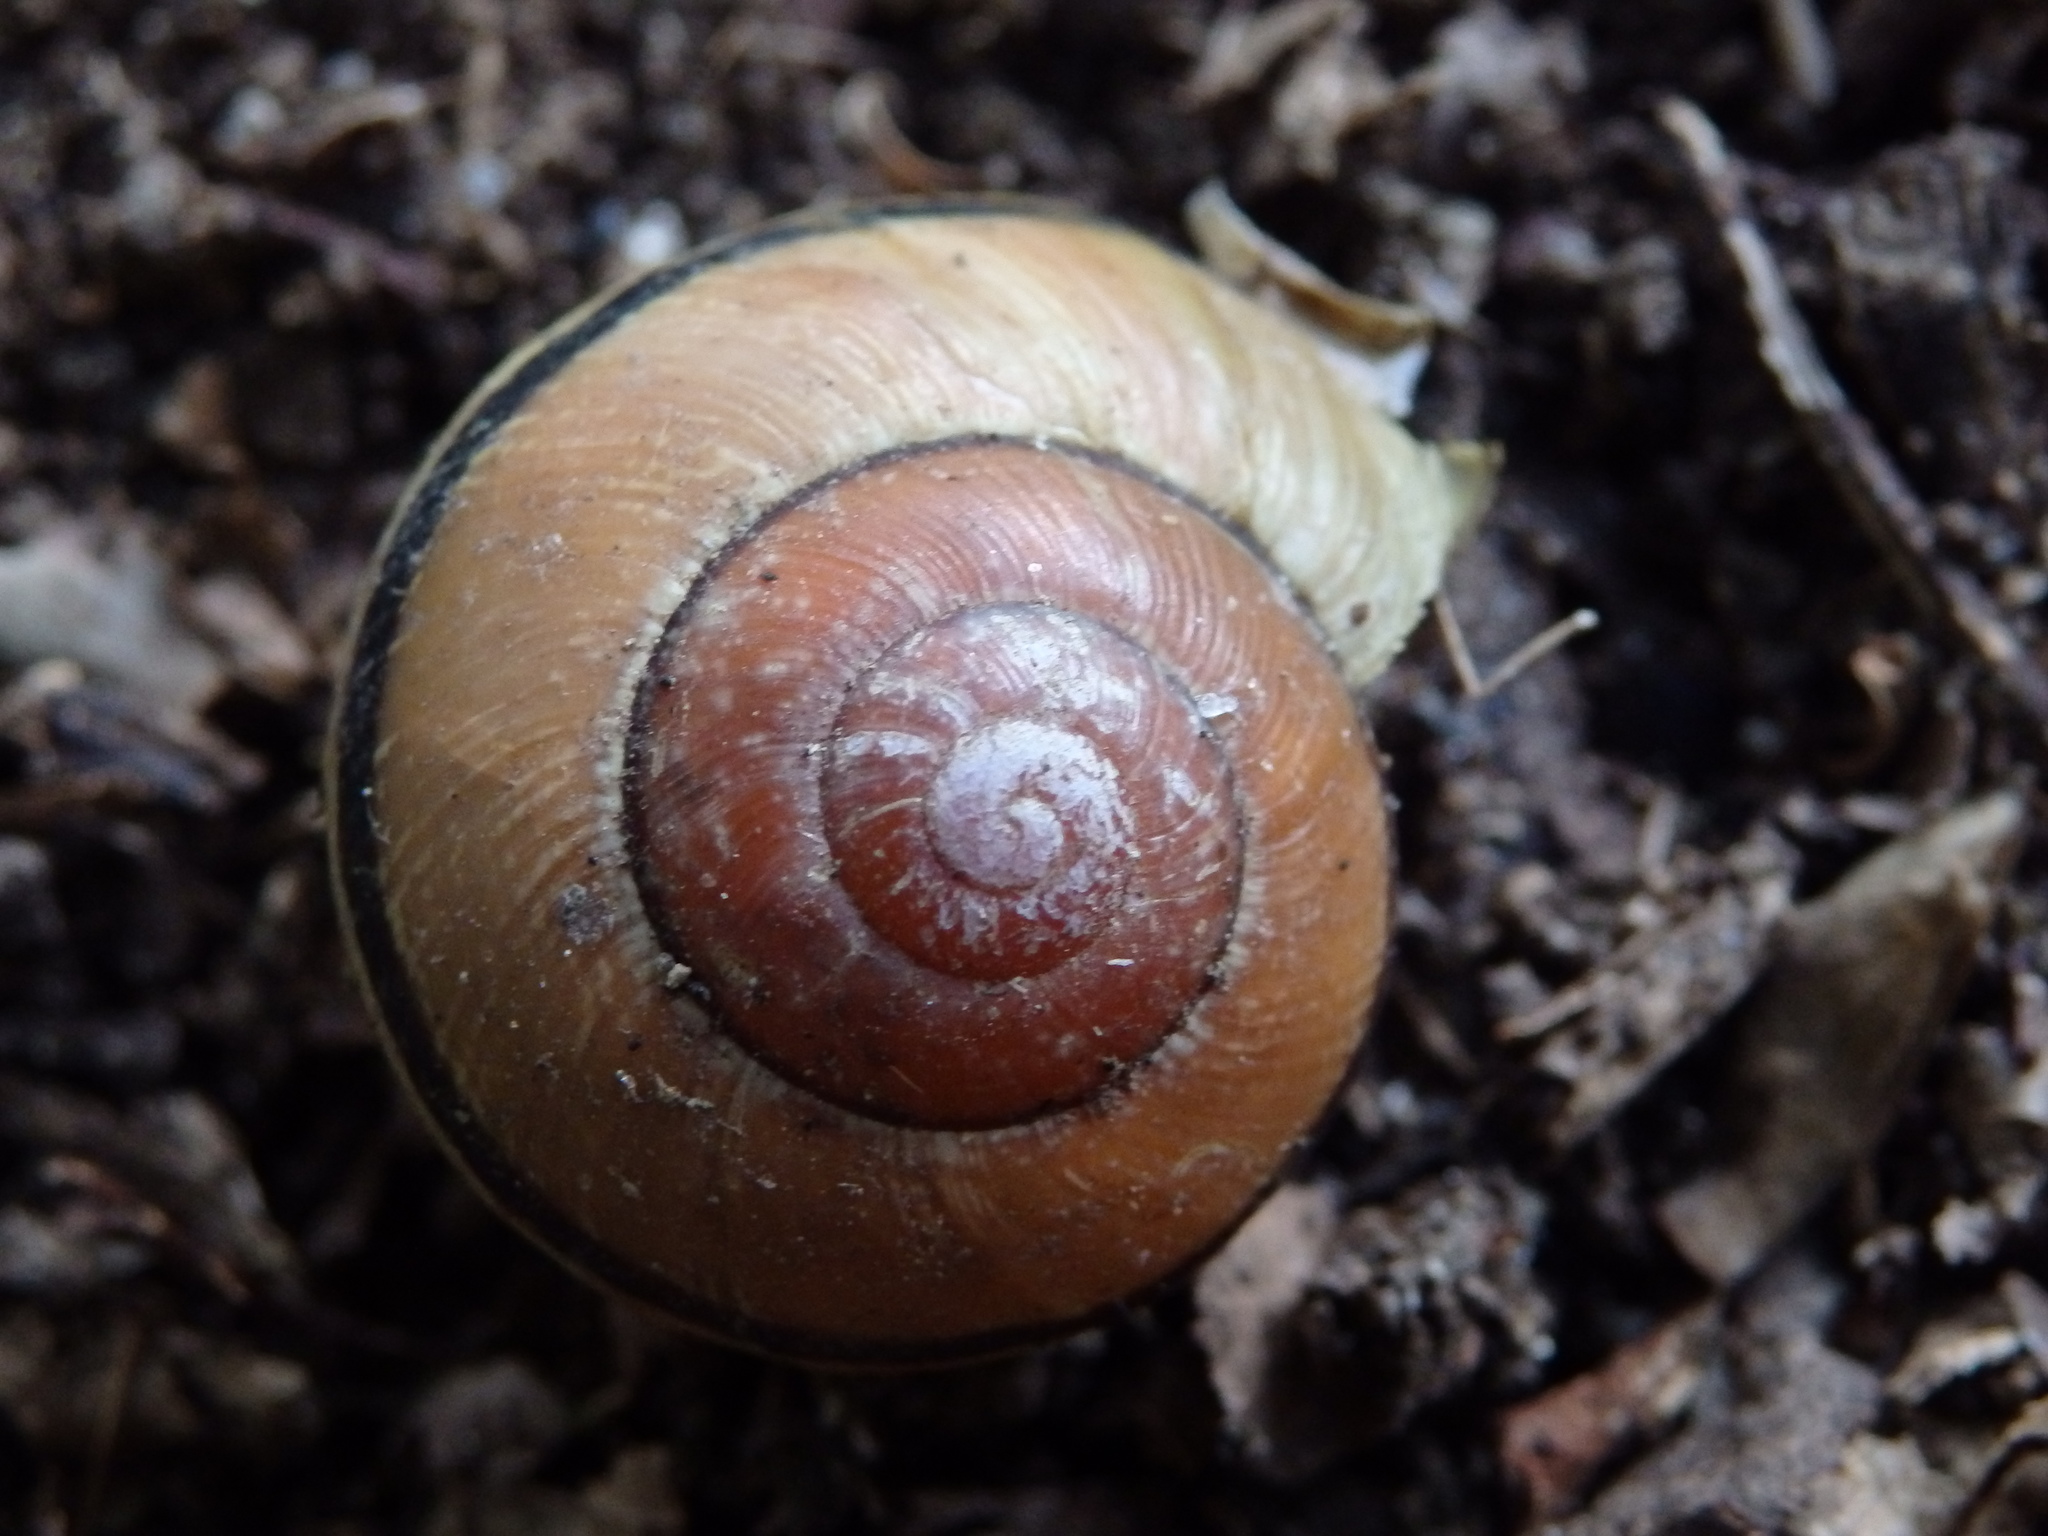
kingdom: Animalia
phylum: Mollusca
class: Gastropoda
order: Stylommatophora
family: Helicidae
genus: Cepaea
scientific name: Cepaea nemoralis
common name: Grovesnail
